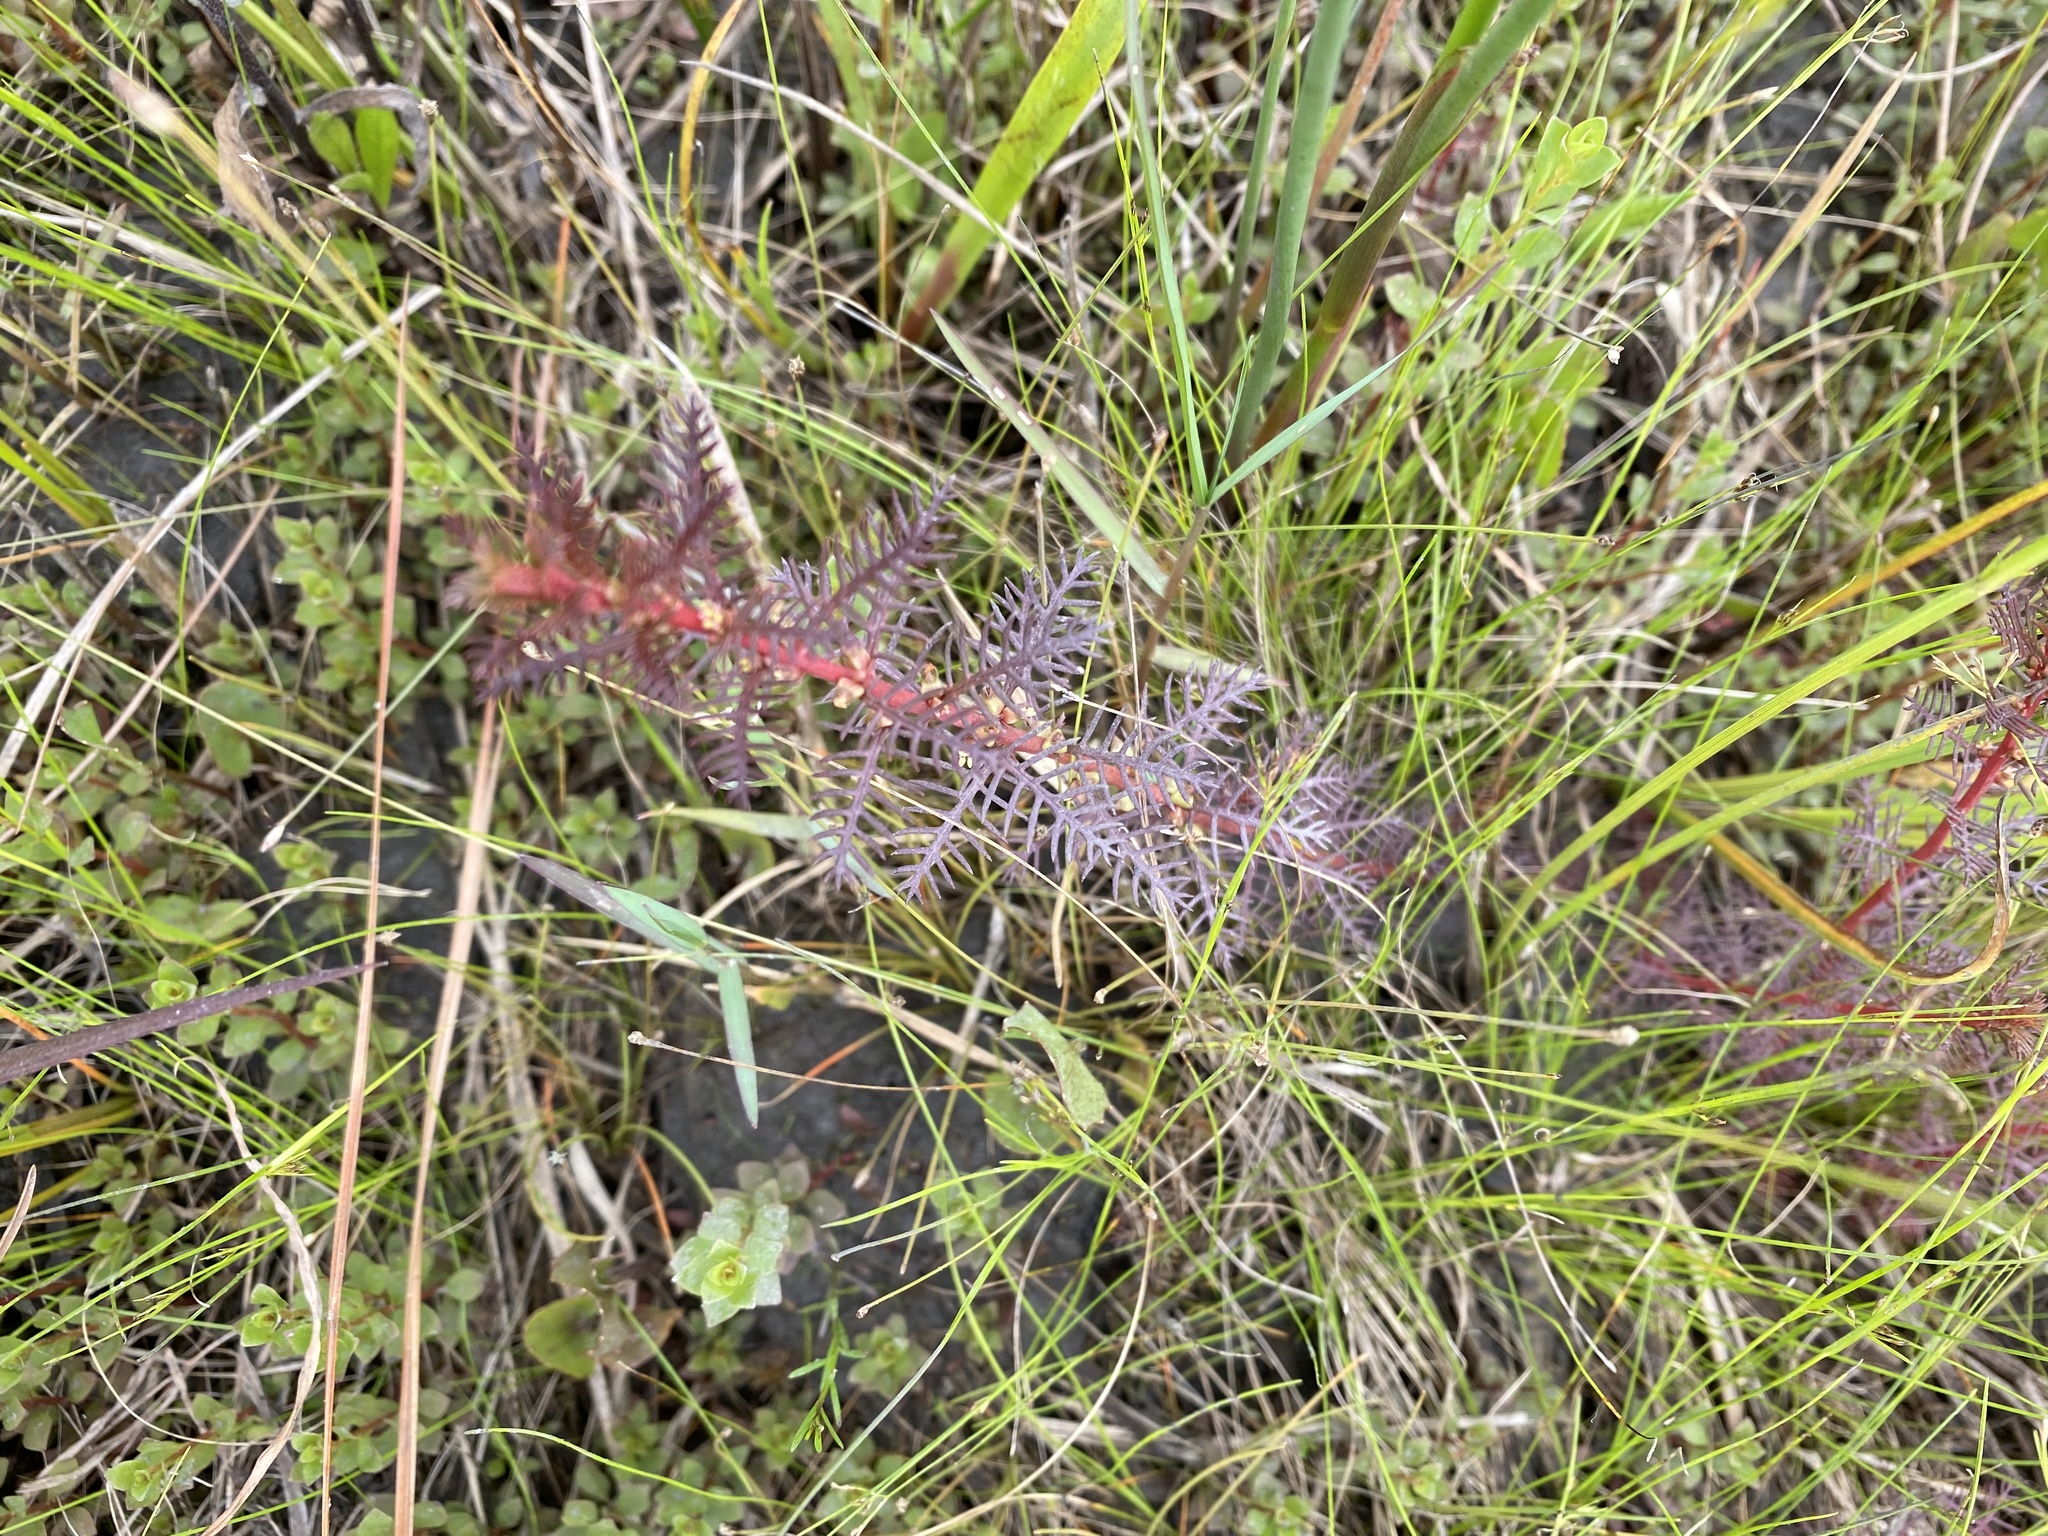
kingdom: Plantae
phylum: Tracheophyta
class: Magnoliopsida
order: Saxifragales
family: Haloragaceae
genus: Proserpinaca
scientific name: Proserpinaca pectinata
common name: Comb-leaved mermaidweed
